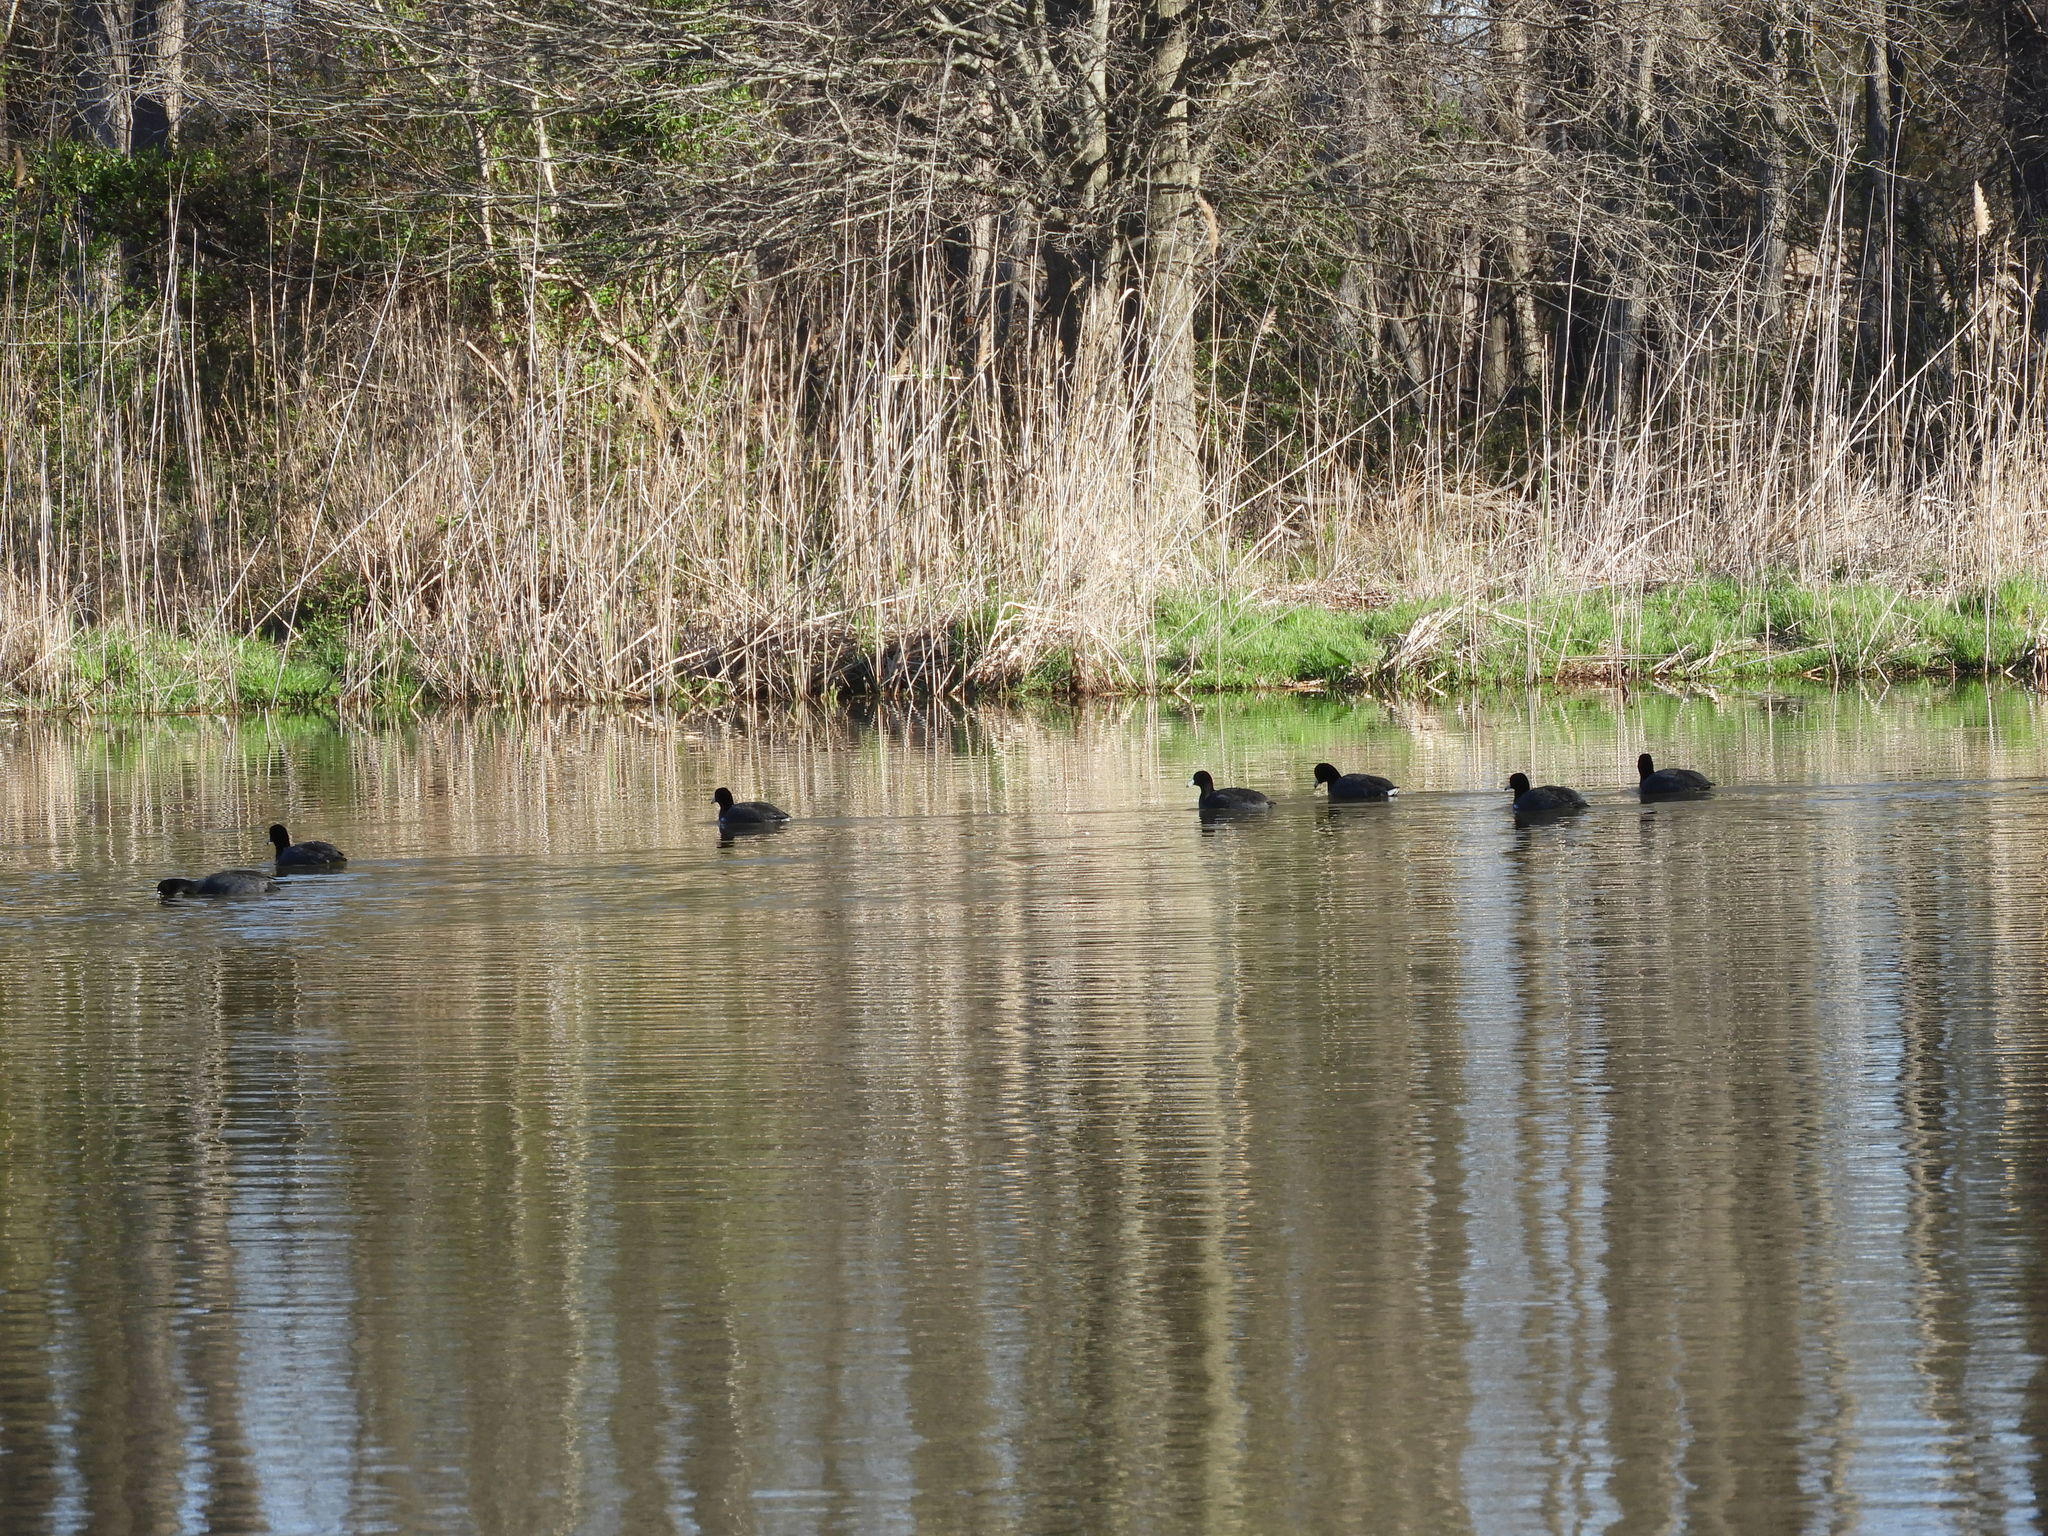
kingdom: Animalia
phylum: Chordata
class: Aves
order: Gruiformes
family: Rallidae
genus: Fulica
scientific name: Fulica americana
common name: American coot
